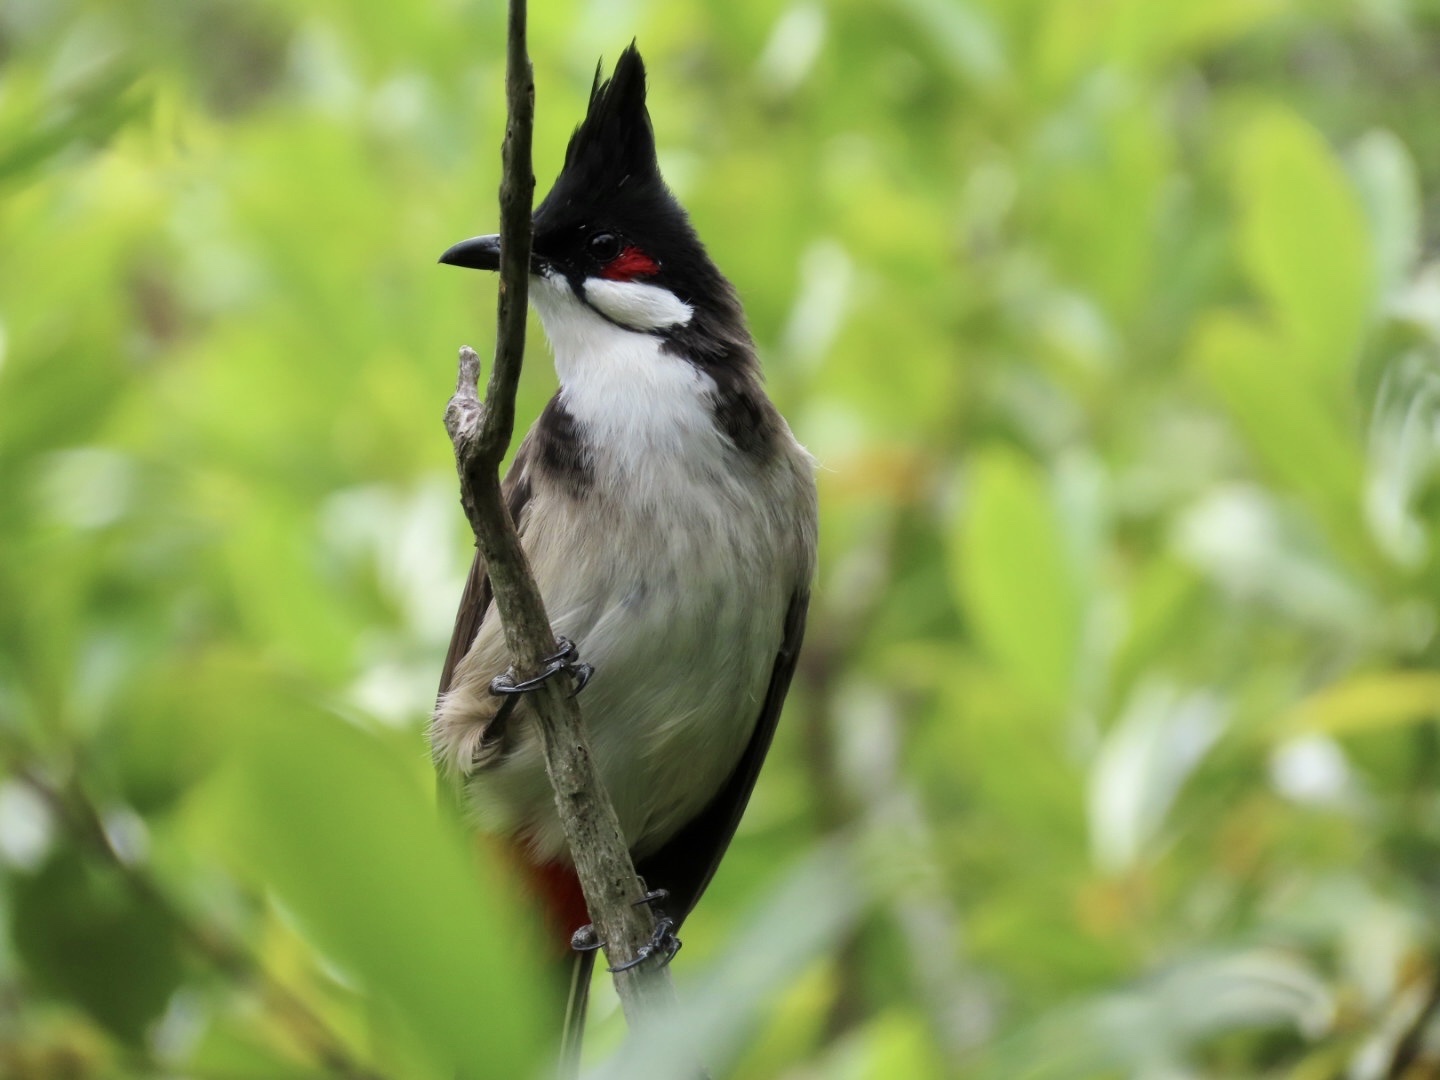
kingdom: Animalia
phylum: Chordata
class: Aves
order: Passeriformes
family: Pycnonotidae
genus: Pycnonotus
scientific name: Pycnonotus jocosus
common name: Red-whiskered bulbul
